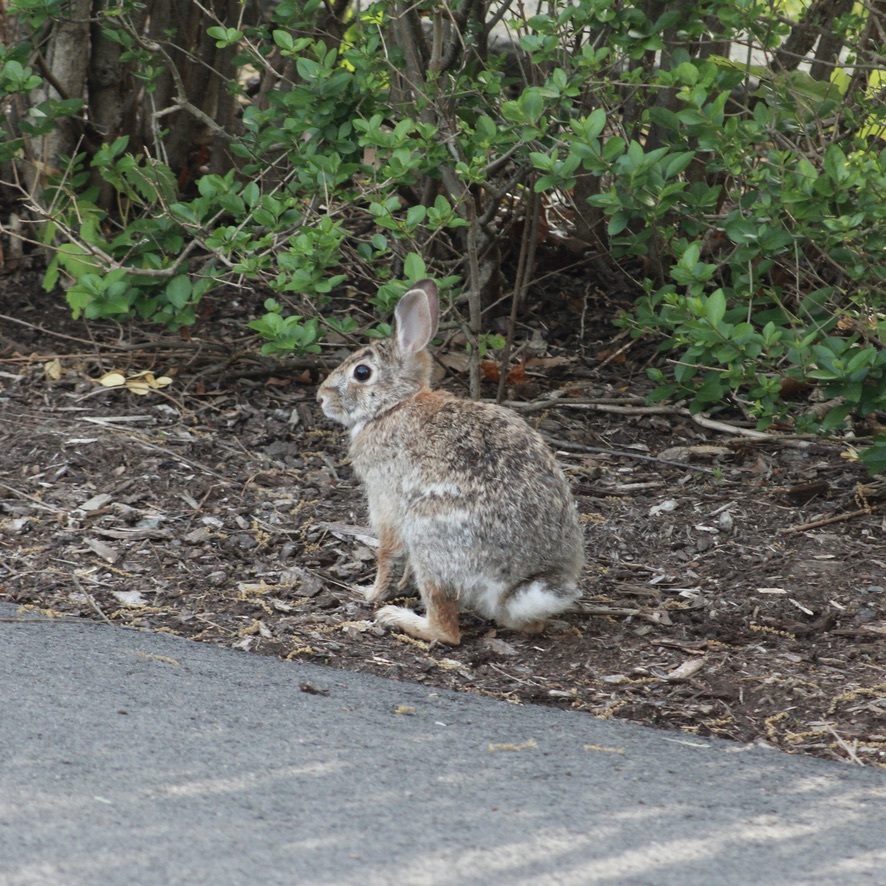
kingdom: Animalia
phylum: Chordata
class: Mammalia
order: Lagomorpha
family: Leporidae
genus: Sylvilagus
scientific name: Sylvilagus floridanus
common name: Eastern cottontail
